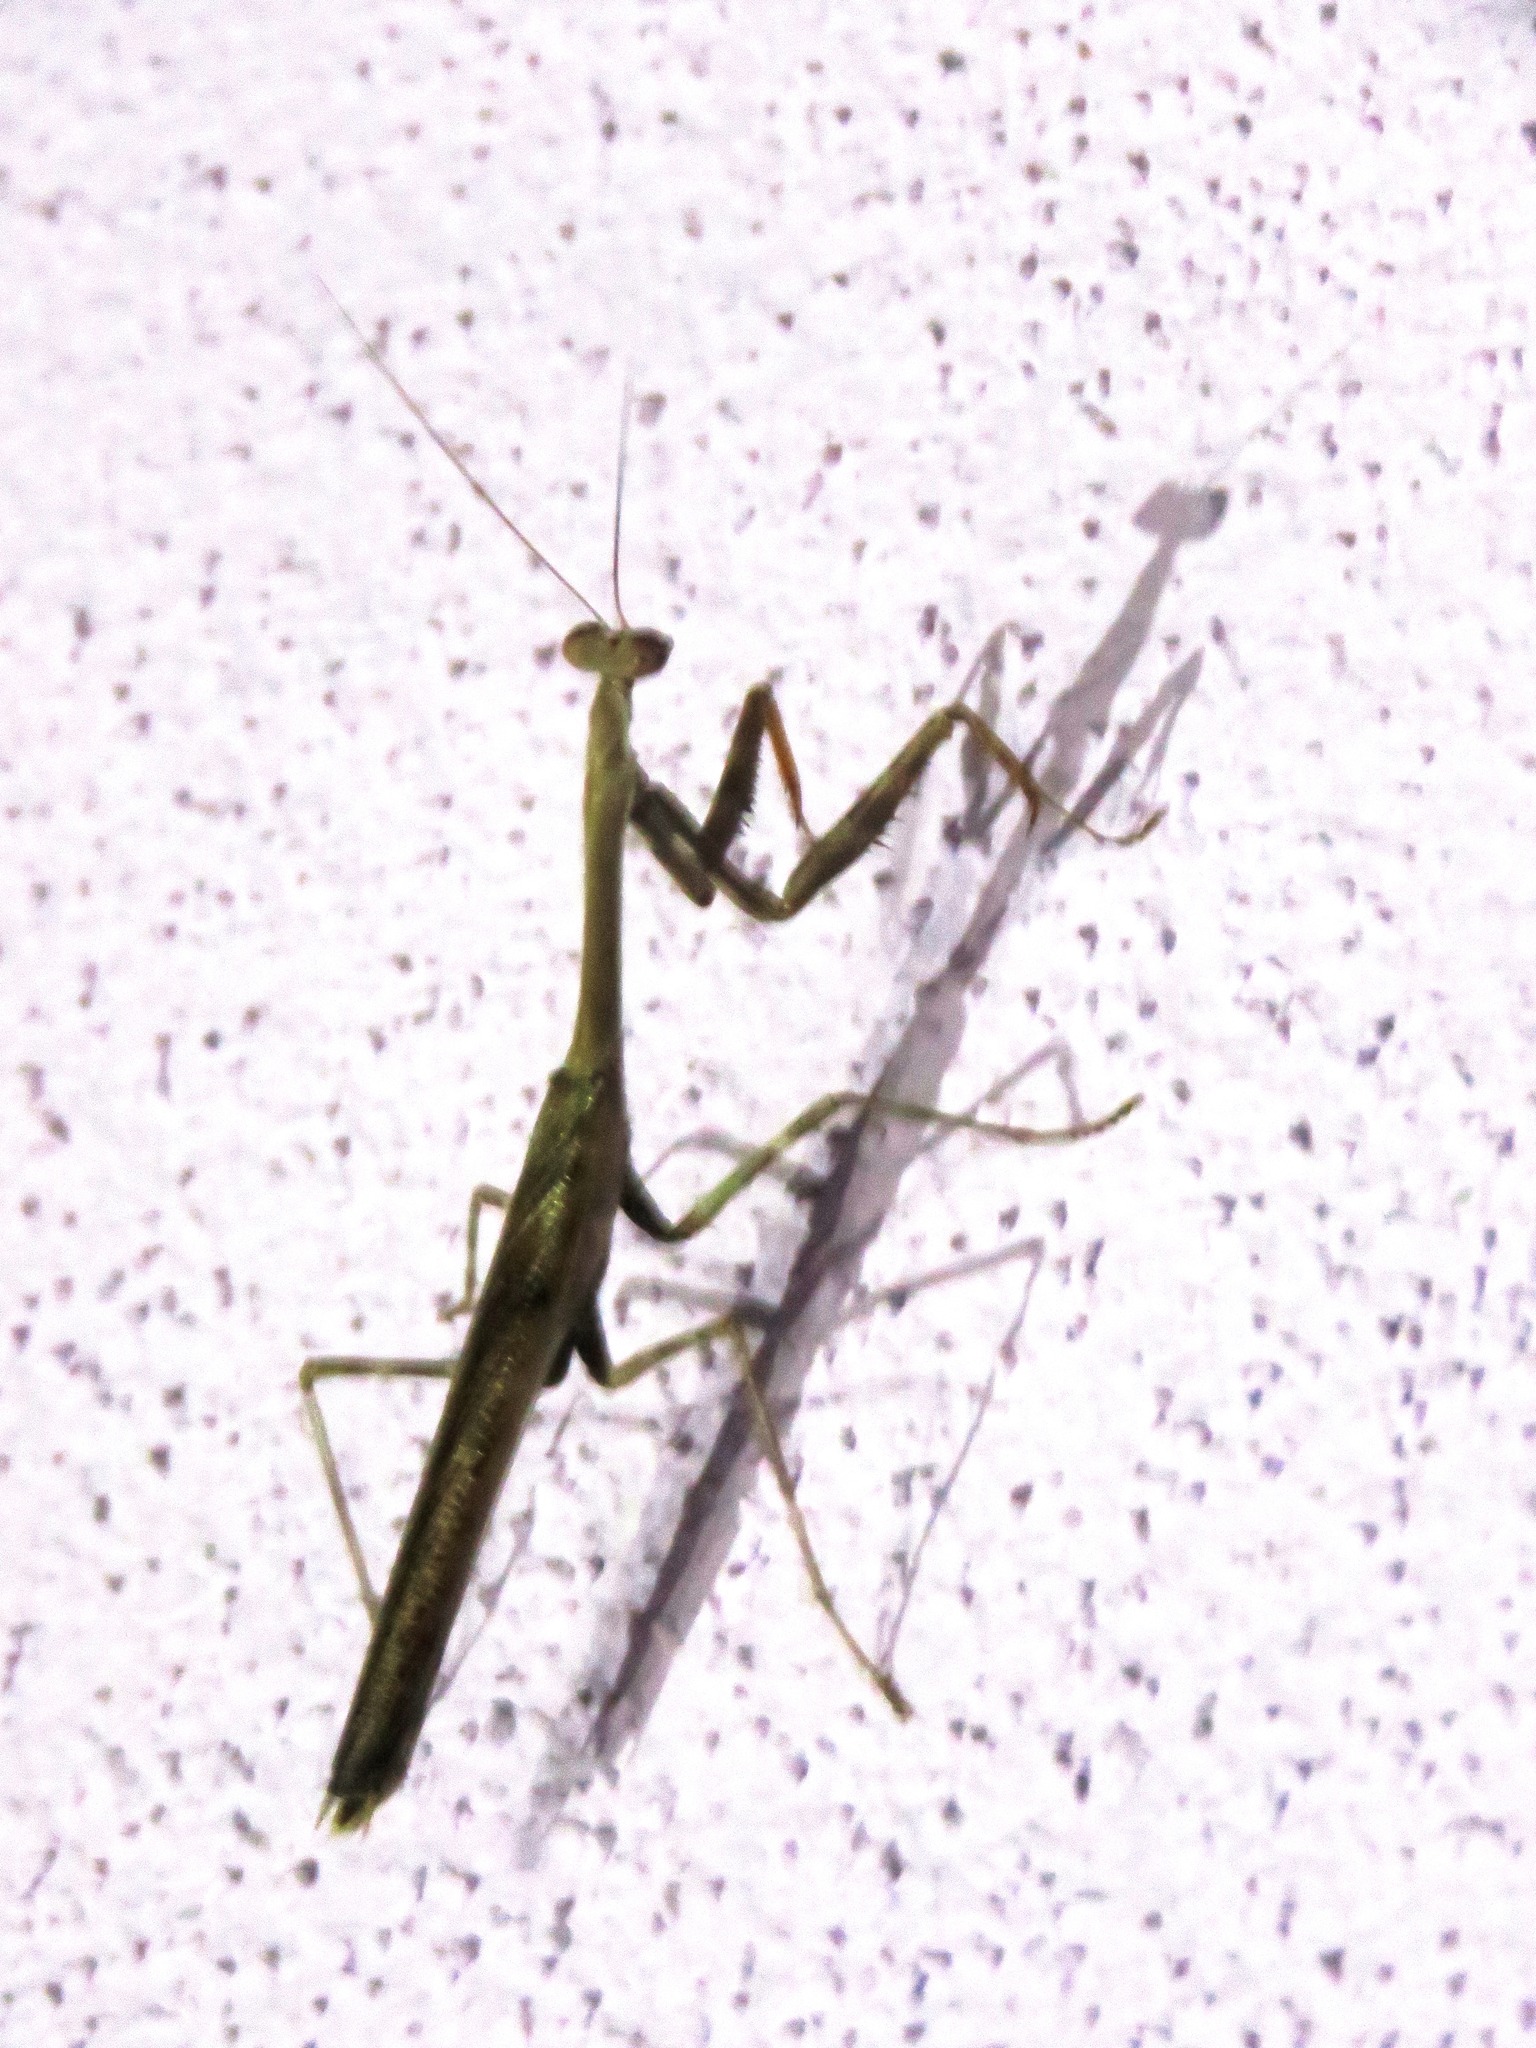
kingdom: Animalia
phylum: Arthropoda
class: Insecta
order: Mantodea
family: Mantidae
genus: Stagmomantis
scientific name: Stagmomantis carolina
